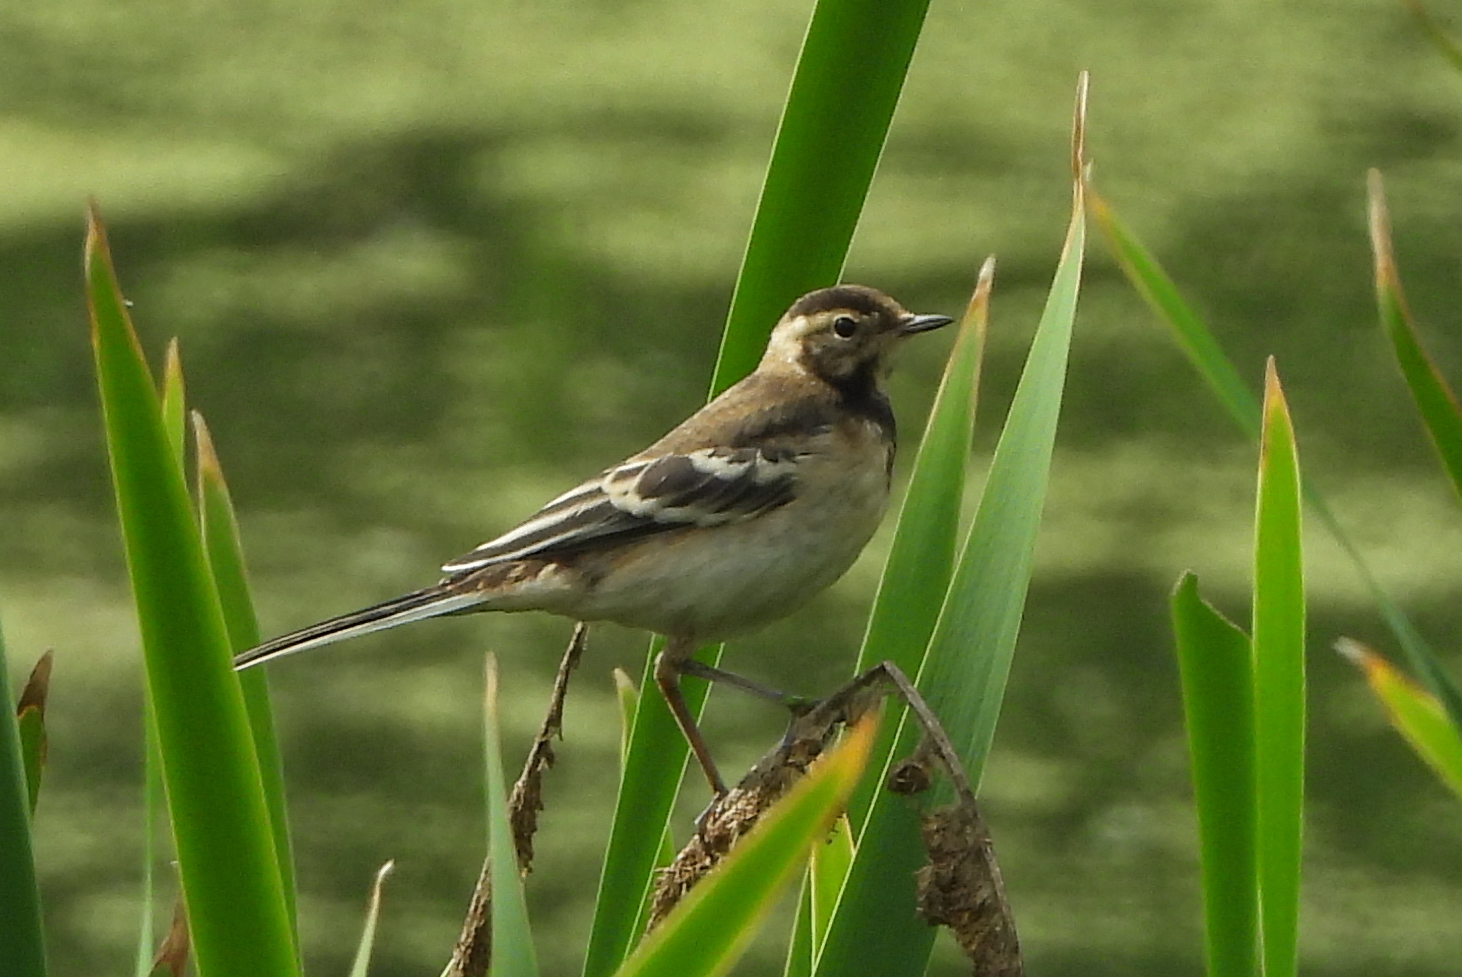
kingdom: Animalia
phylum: Chordata
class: Aves
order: Passeriformes
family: Motacillidae
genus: Motacilla
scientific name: Motacilla flava
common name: Western yellow wagtail
